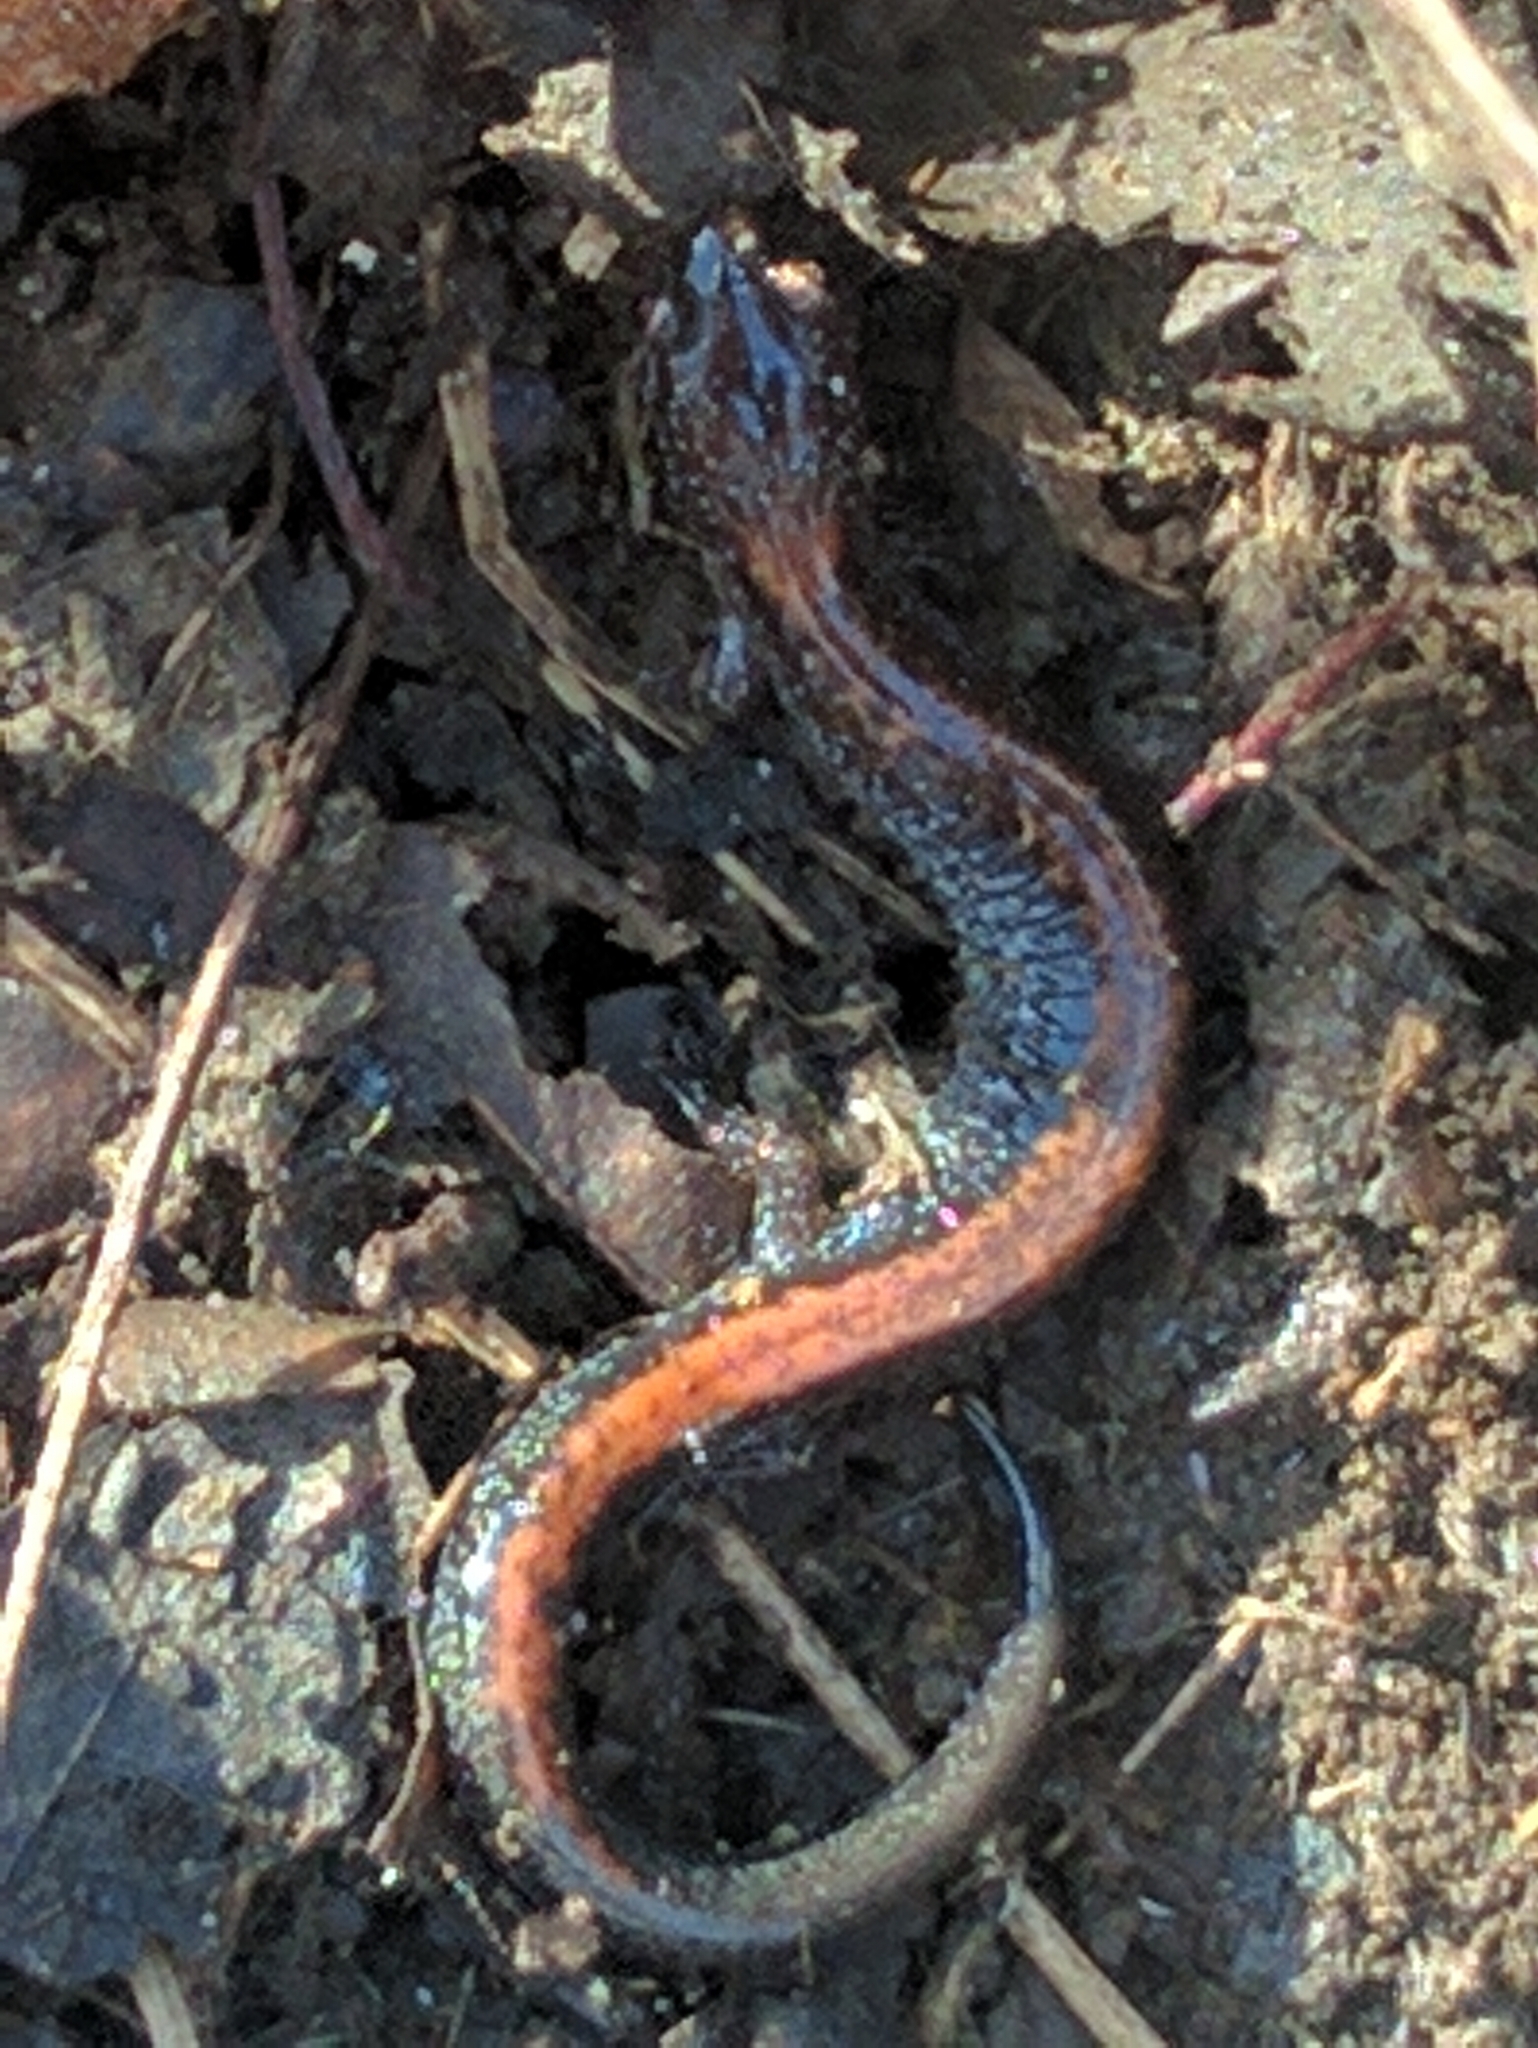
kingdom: Animalia
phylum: Chordata
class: Amphibia
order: Caudata
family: Plethodontidae
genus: Plethodon
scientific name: Plethodon cinereus
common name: Redback salamander
